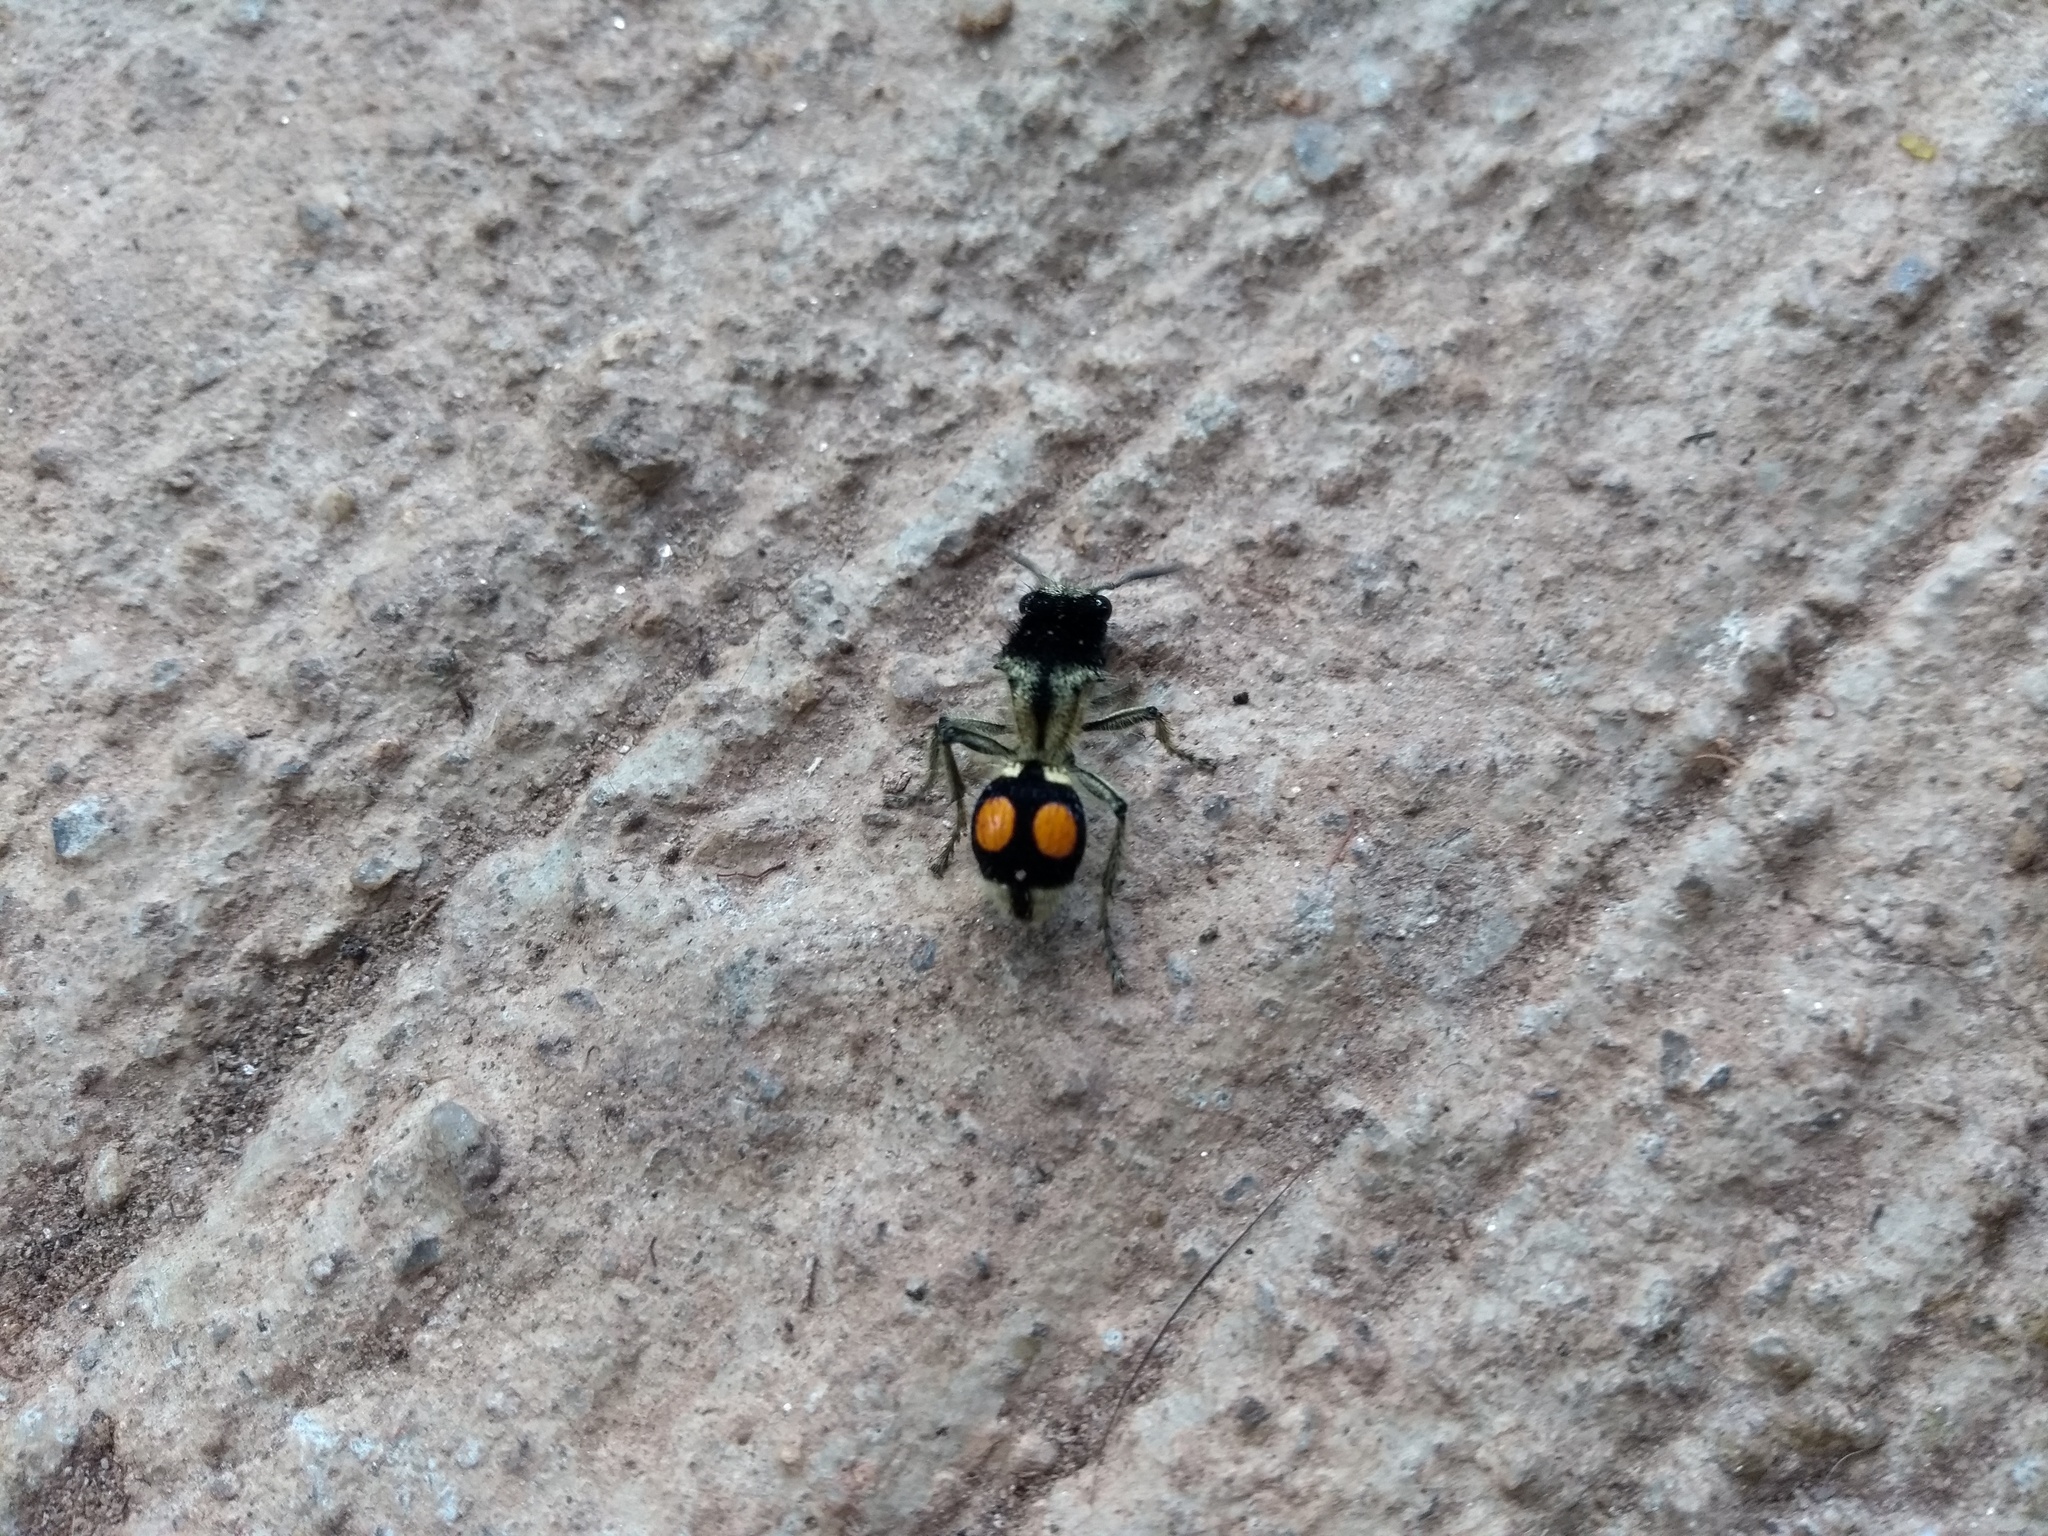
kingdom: Animalia
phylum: Arthropoda
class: Insecta
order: Hymenoptera
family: Mutillidae
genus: Hoplomutilla
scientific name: Hoplomutilla
